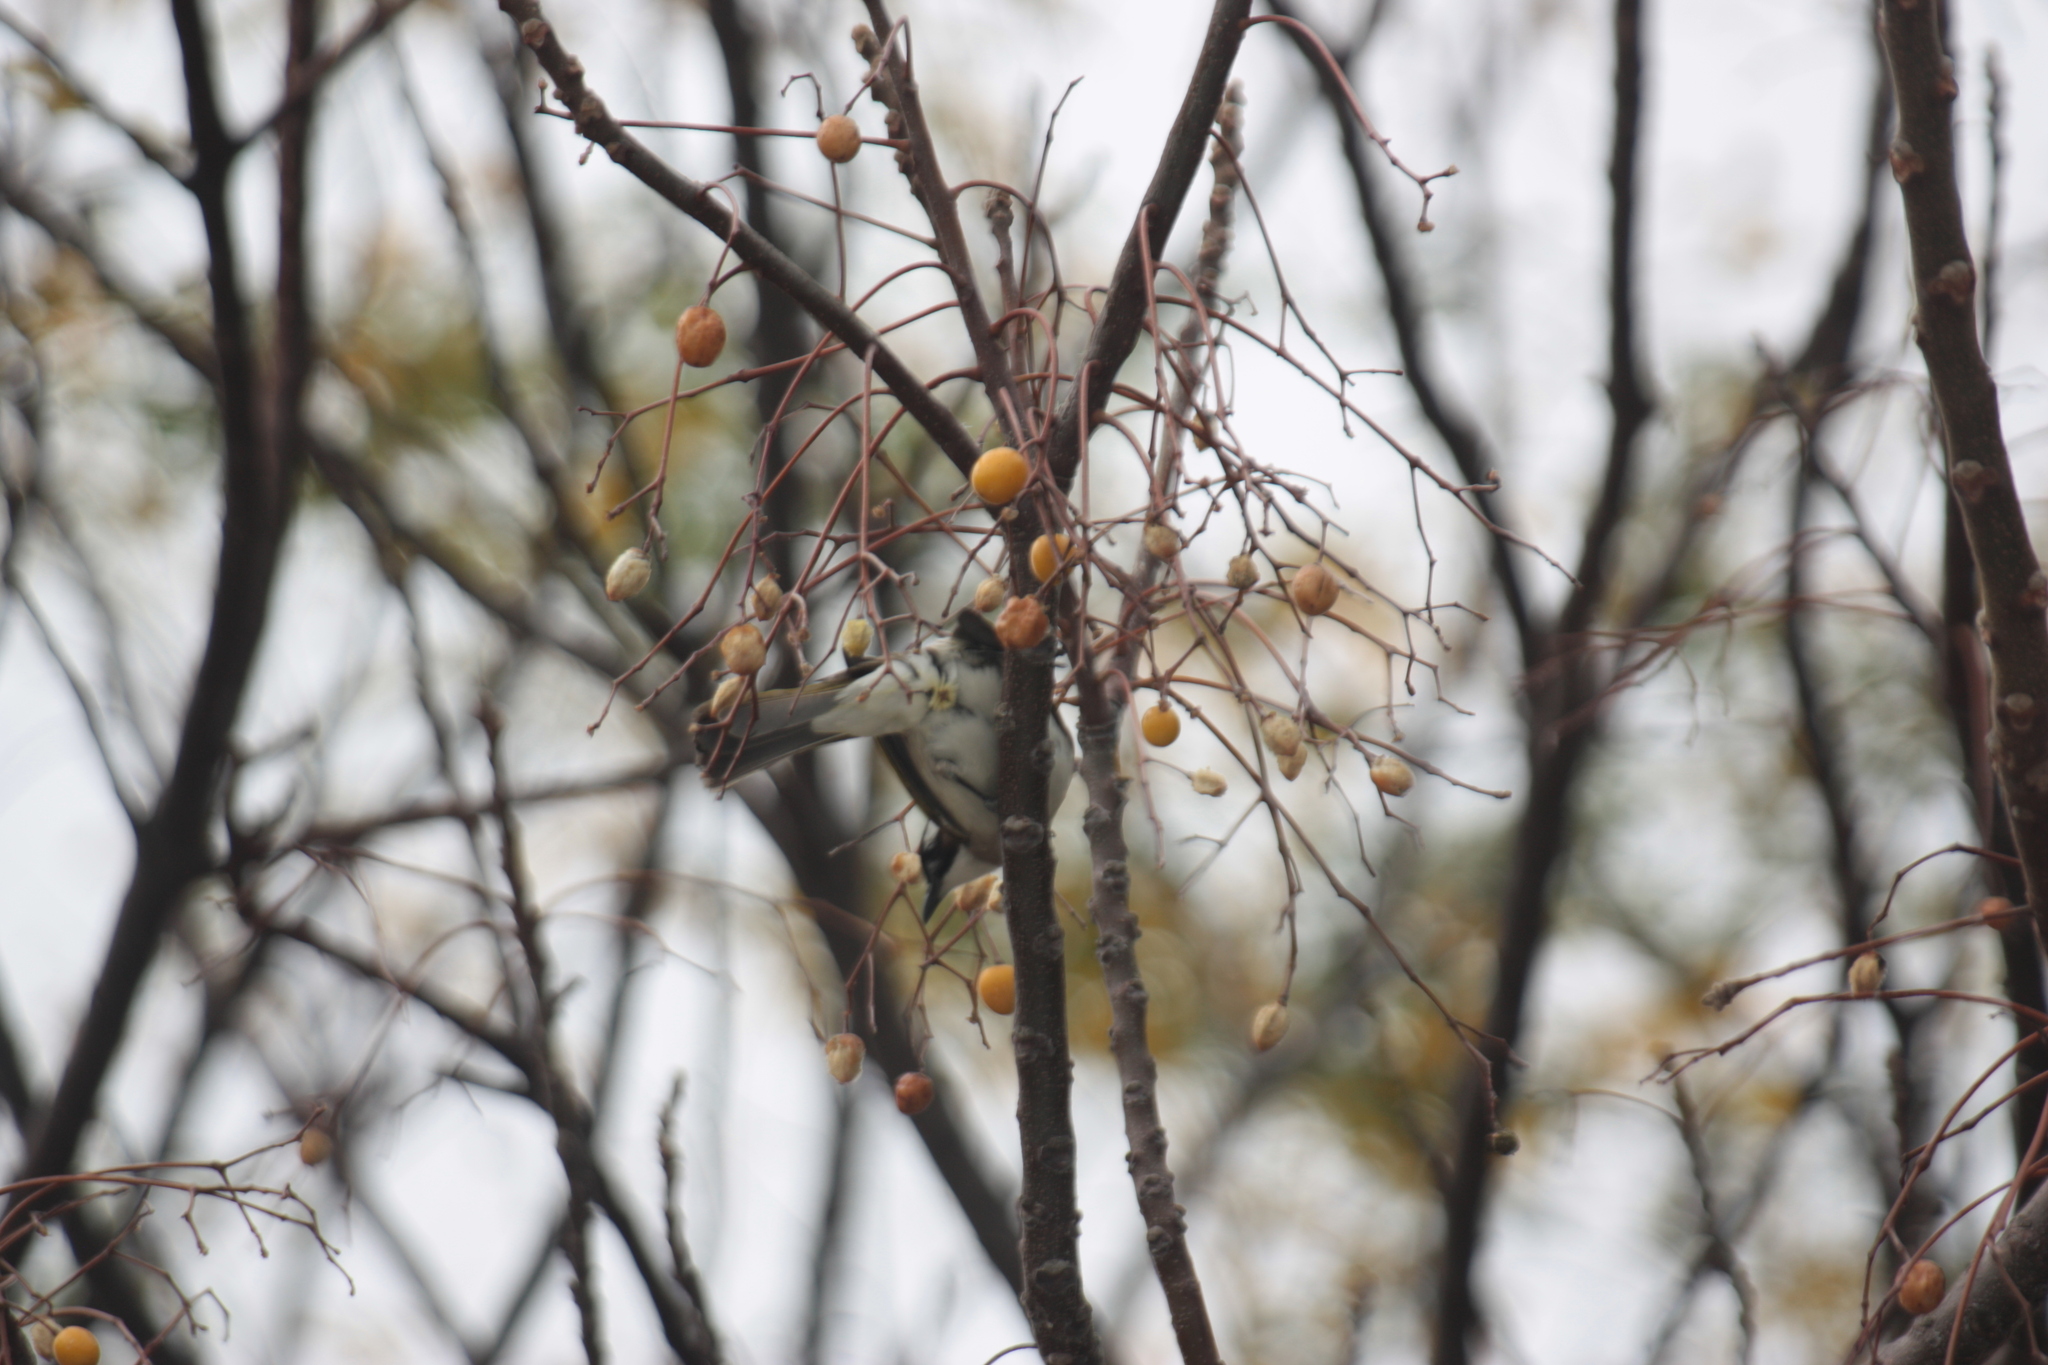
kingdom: Animalia
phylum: Chordata
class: Aves
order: Passeriformes
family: Pycnonotidae
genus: Pycnonotus
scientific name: Pycnonotus sinensis
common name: Light-vented bulbul
